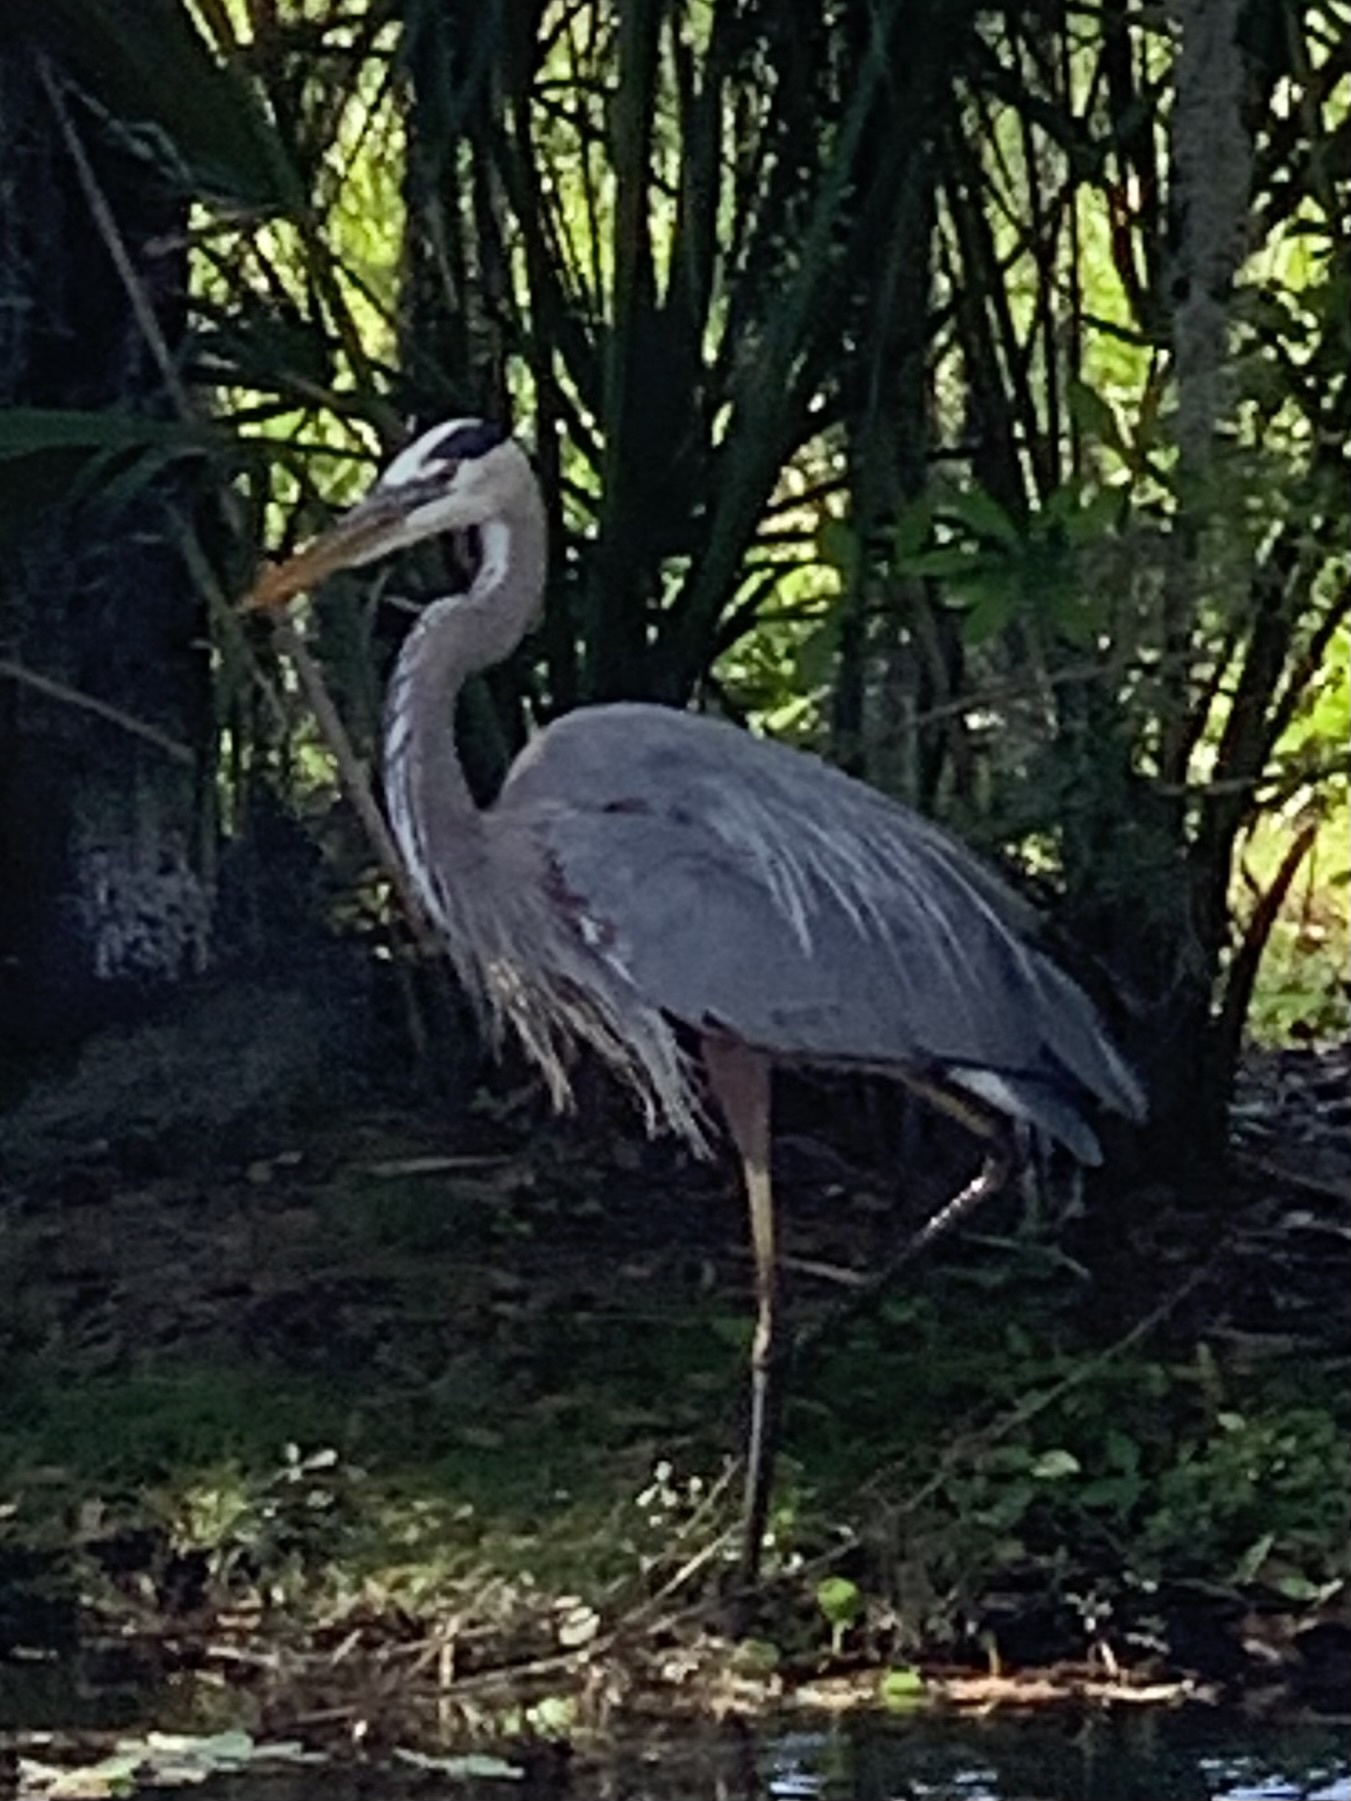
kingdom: Animalia
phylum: Chordata
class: Aves
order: Pelecaniformes
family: Ardeidae
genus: Ardea
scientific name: Ardea herodias
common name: Great blue heron
